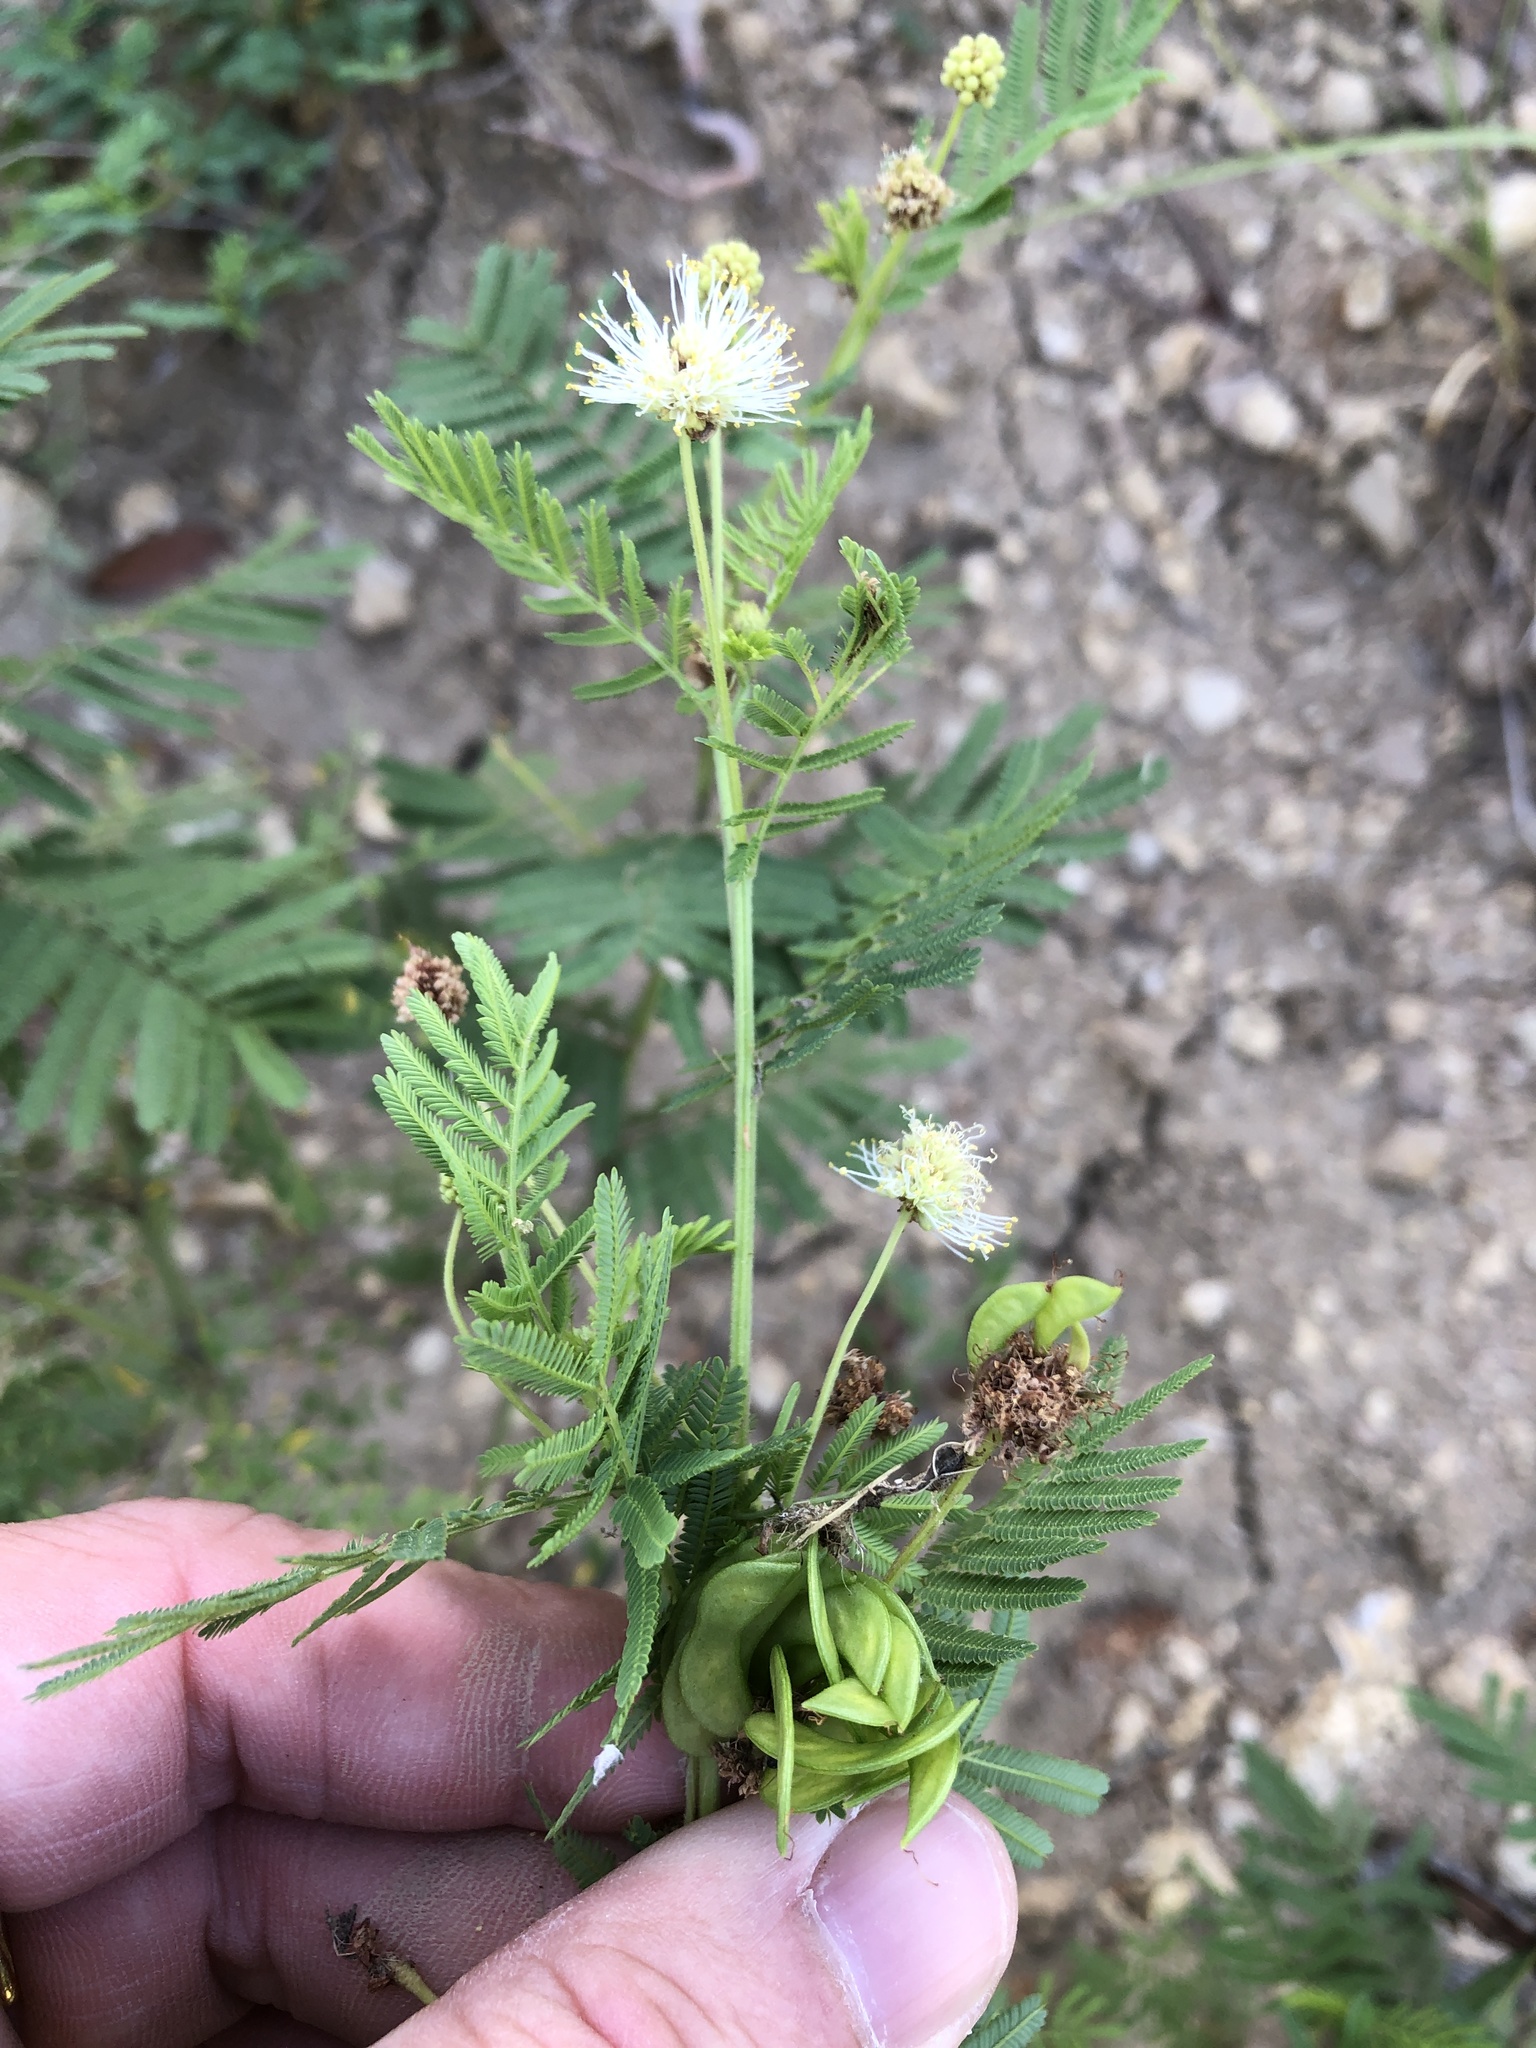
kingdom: Plantae
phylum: Tracheophyta
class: Magnoliopsida
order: Fabales
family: Fabaceae
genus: Desmanthus
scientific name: Desmanthus illinoensis
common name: Illinois bundle-flower
